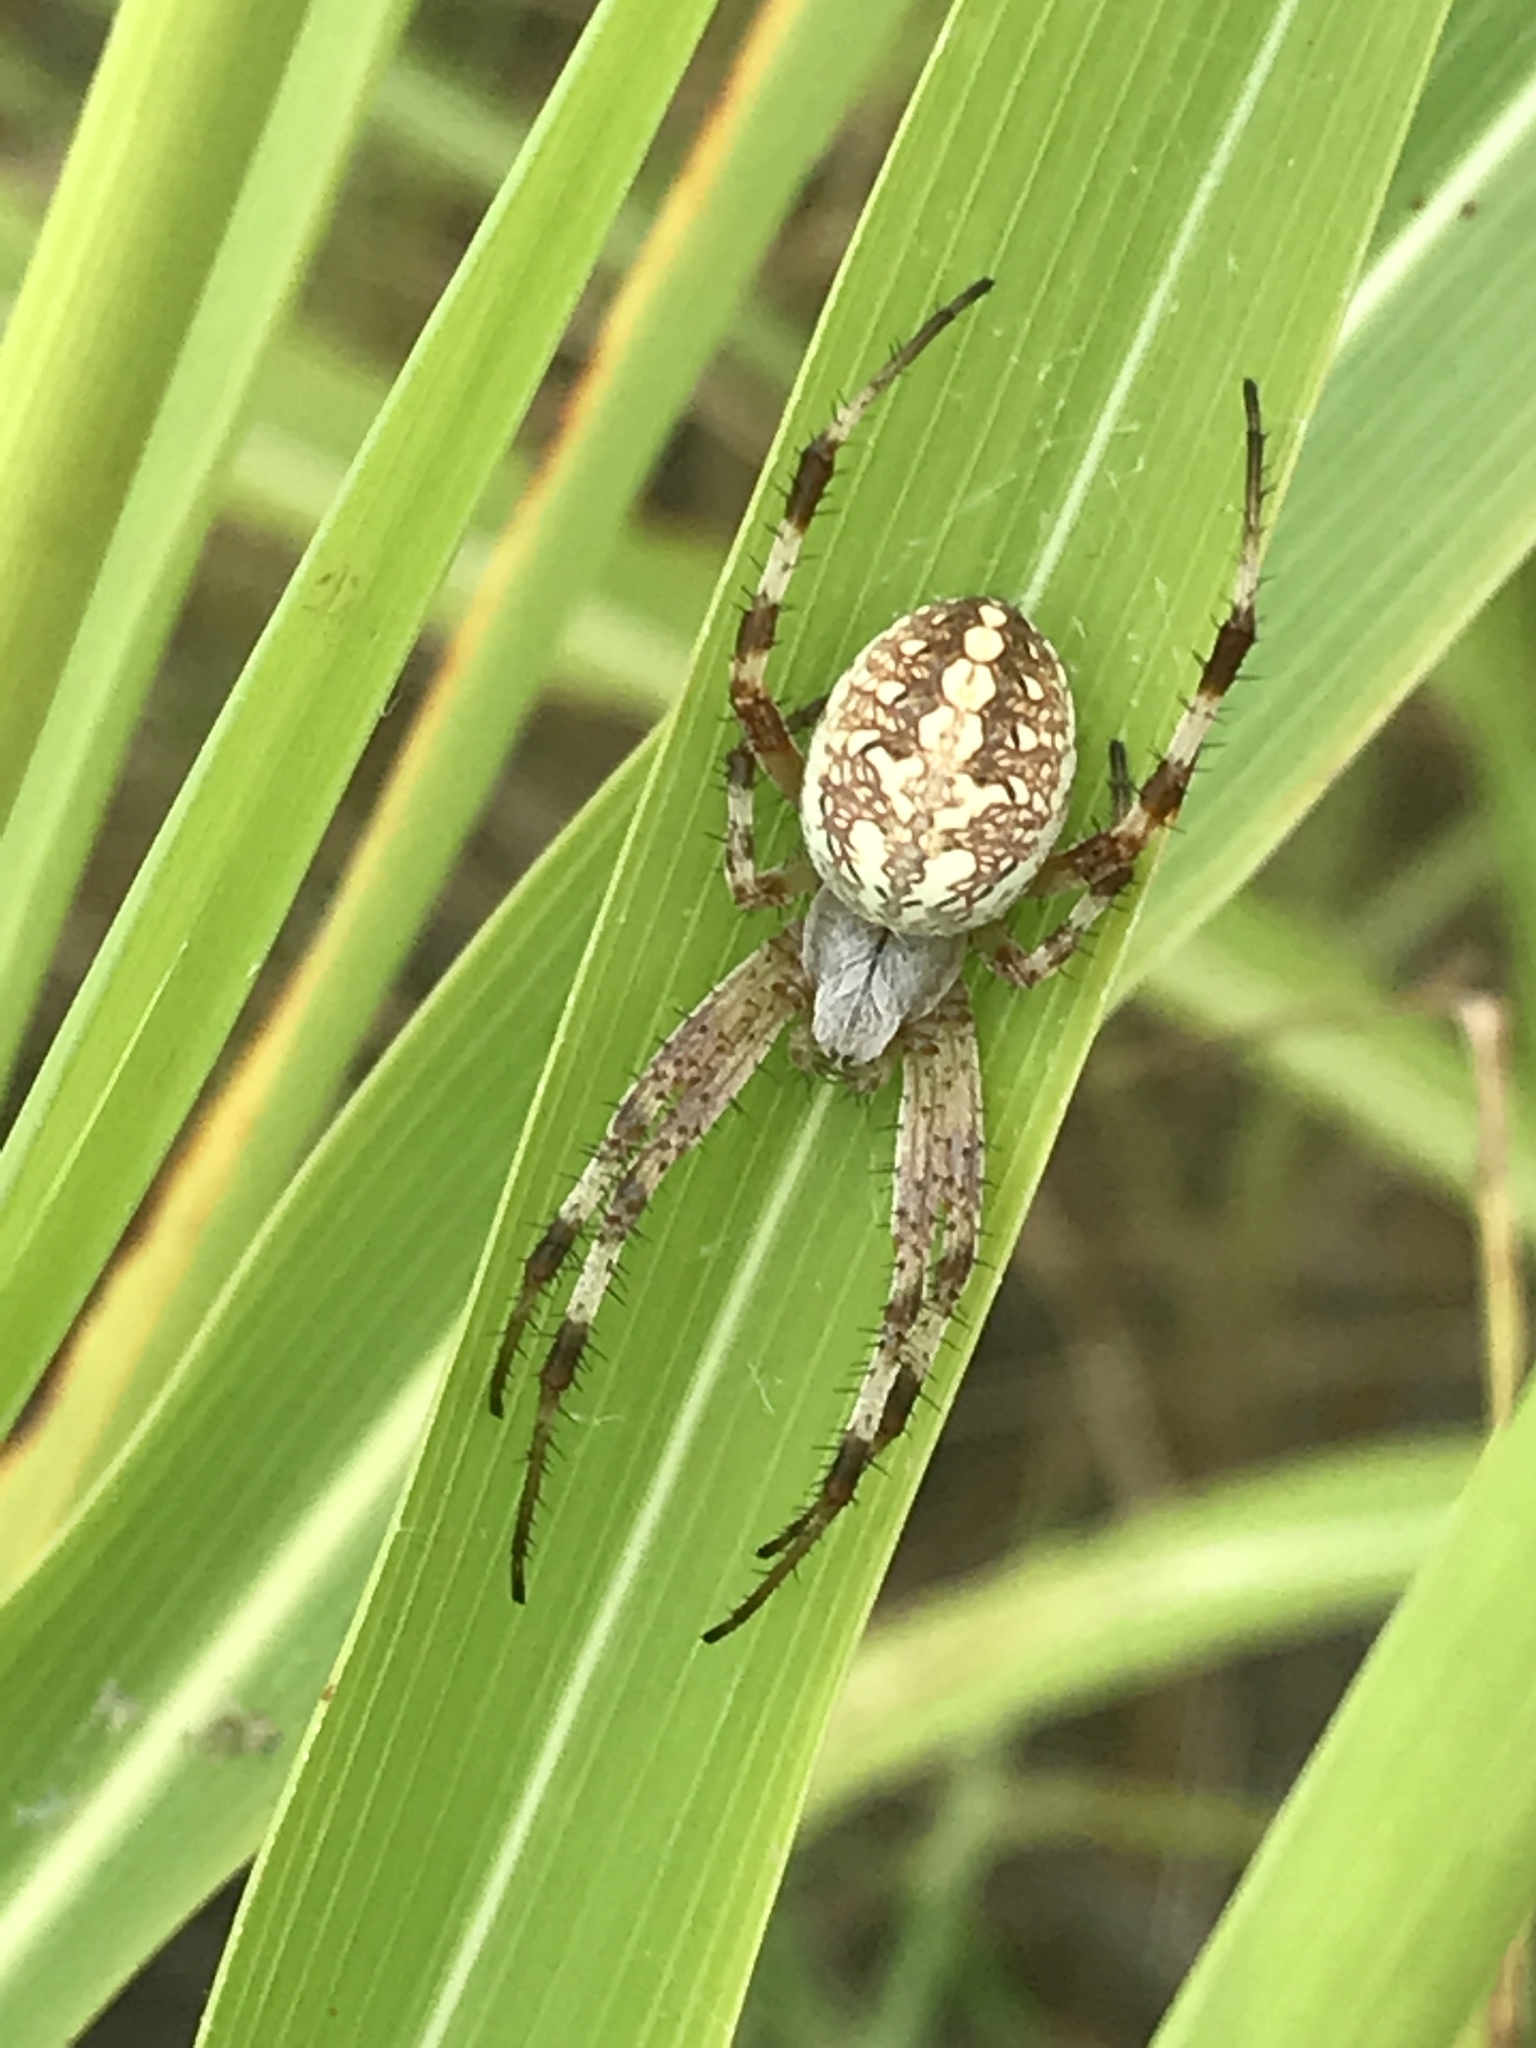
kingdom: Animalia
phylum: Arthropoda
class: Arachnida
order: Araneae
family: Araneidae
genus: Neoscona
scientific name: Neoscona oaxacensis
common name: Orb weavers
